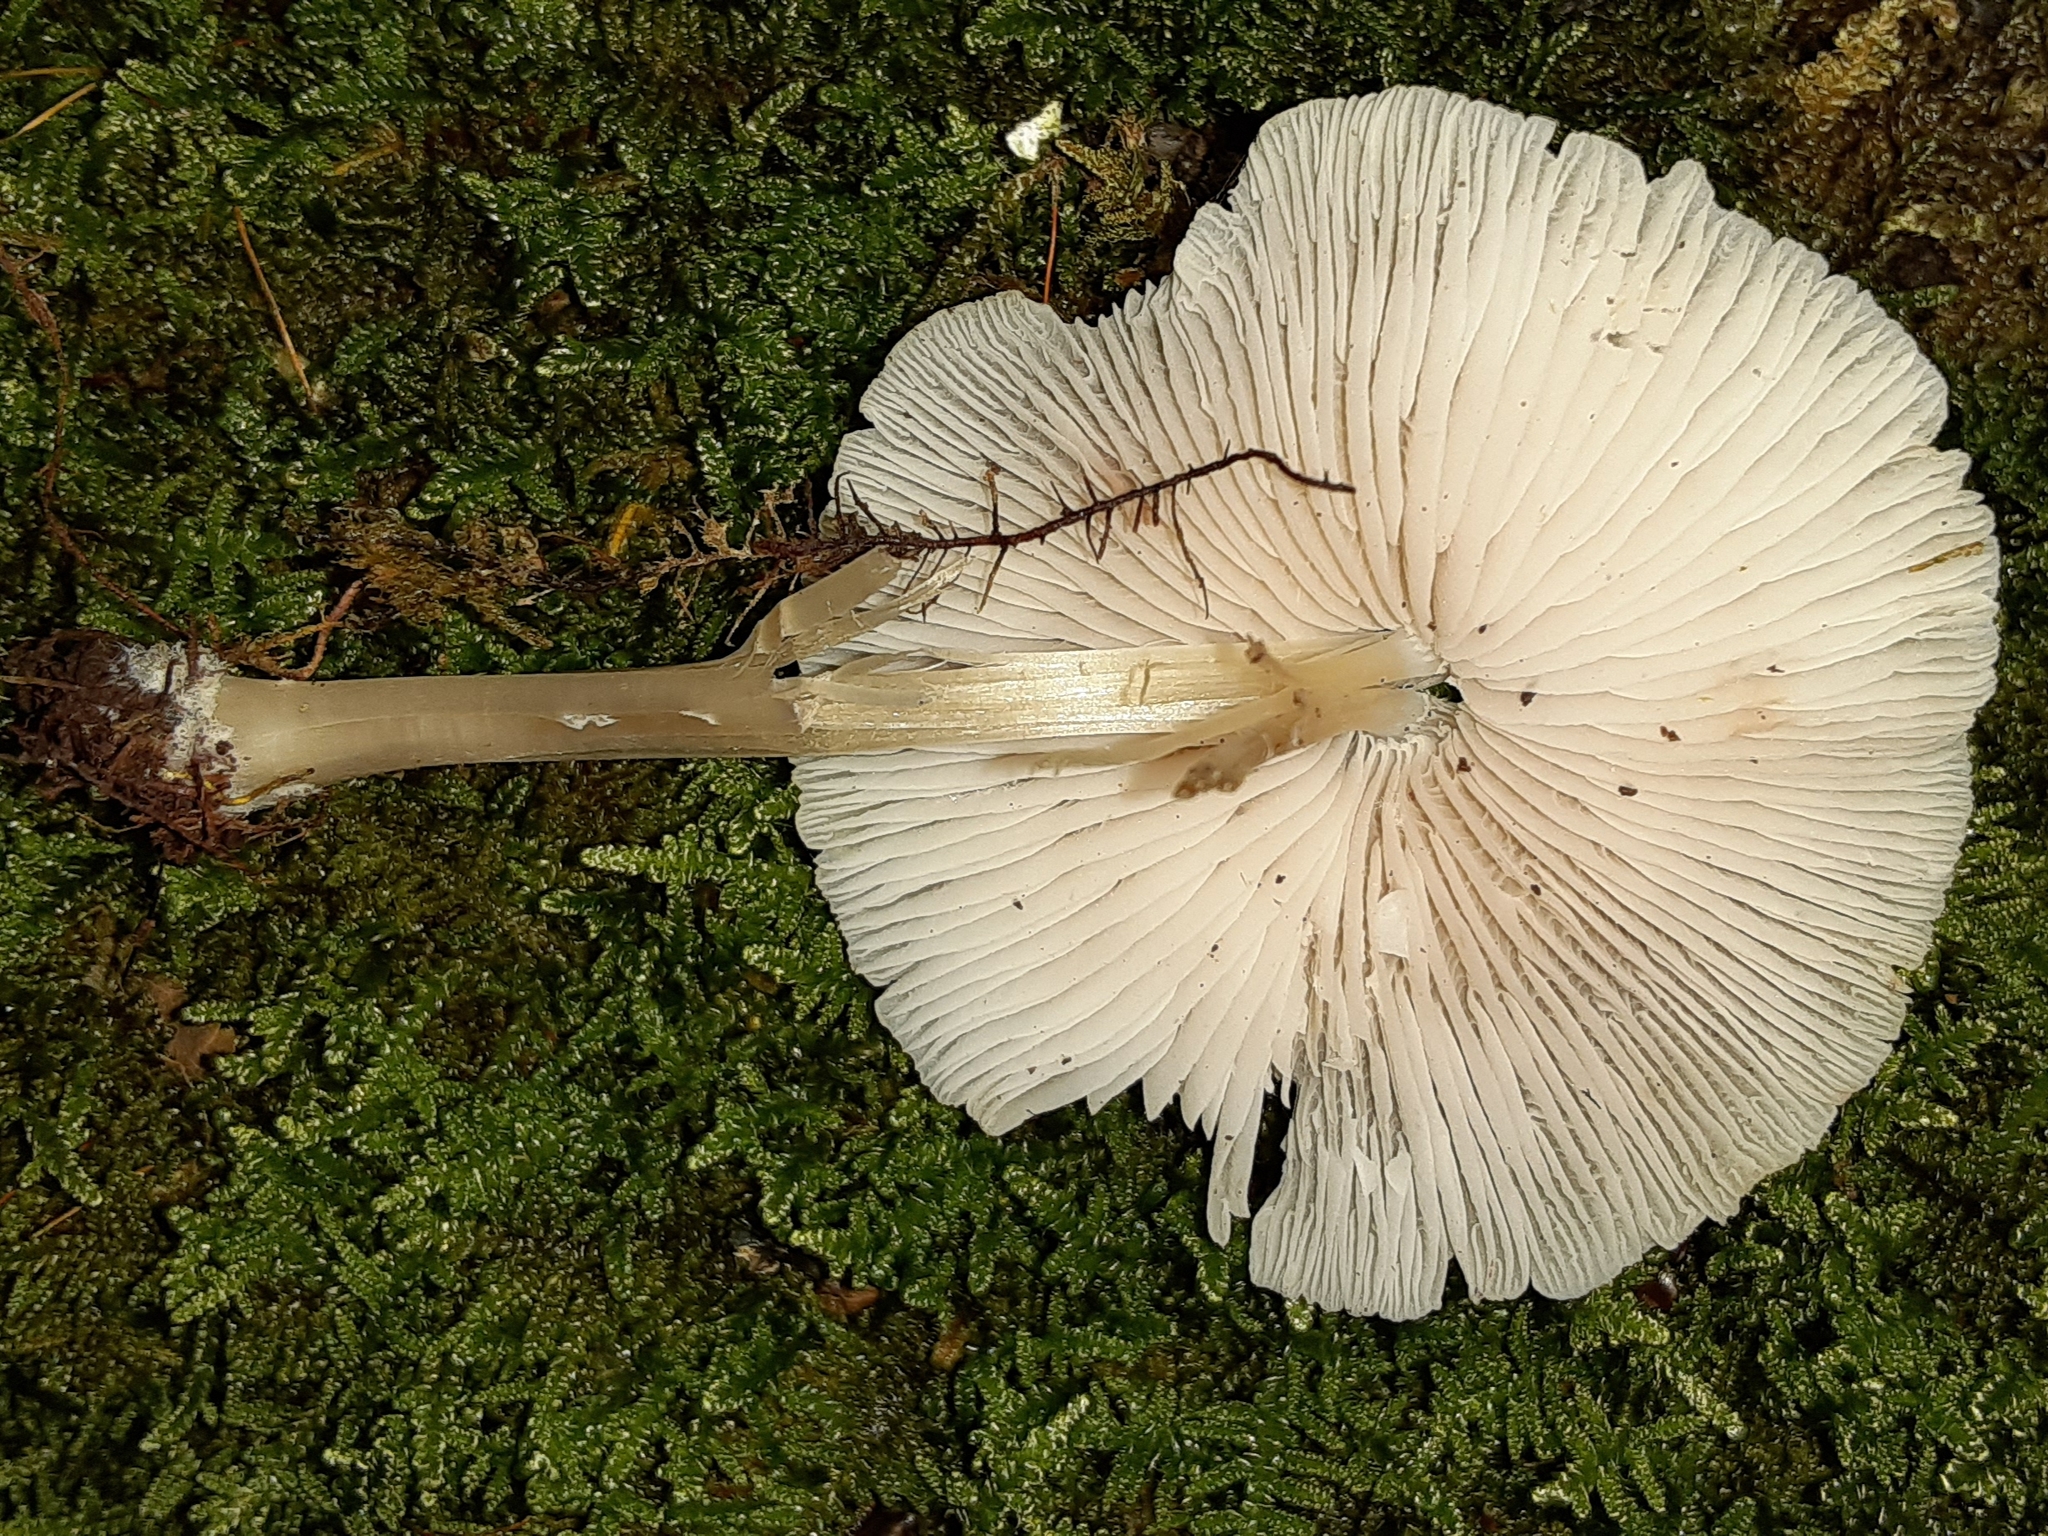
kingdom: Fungi
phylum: Basidiomycota
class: Agaricomycetes
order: Agaricales
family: Mycenaceae
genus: Mycena
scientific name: Mycena galericulata
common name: Bonnet mycena
